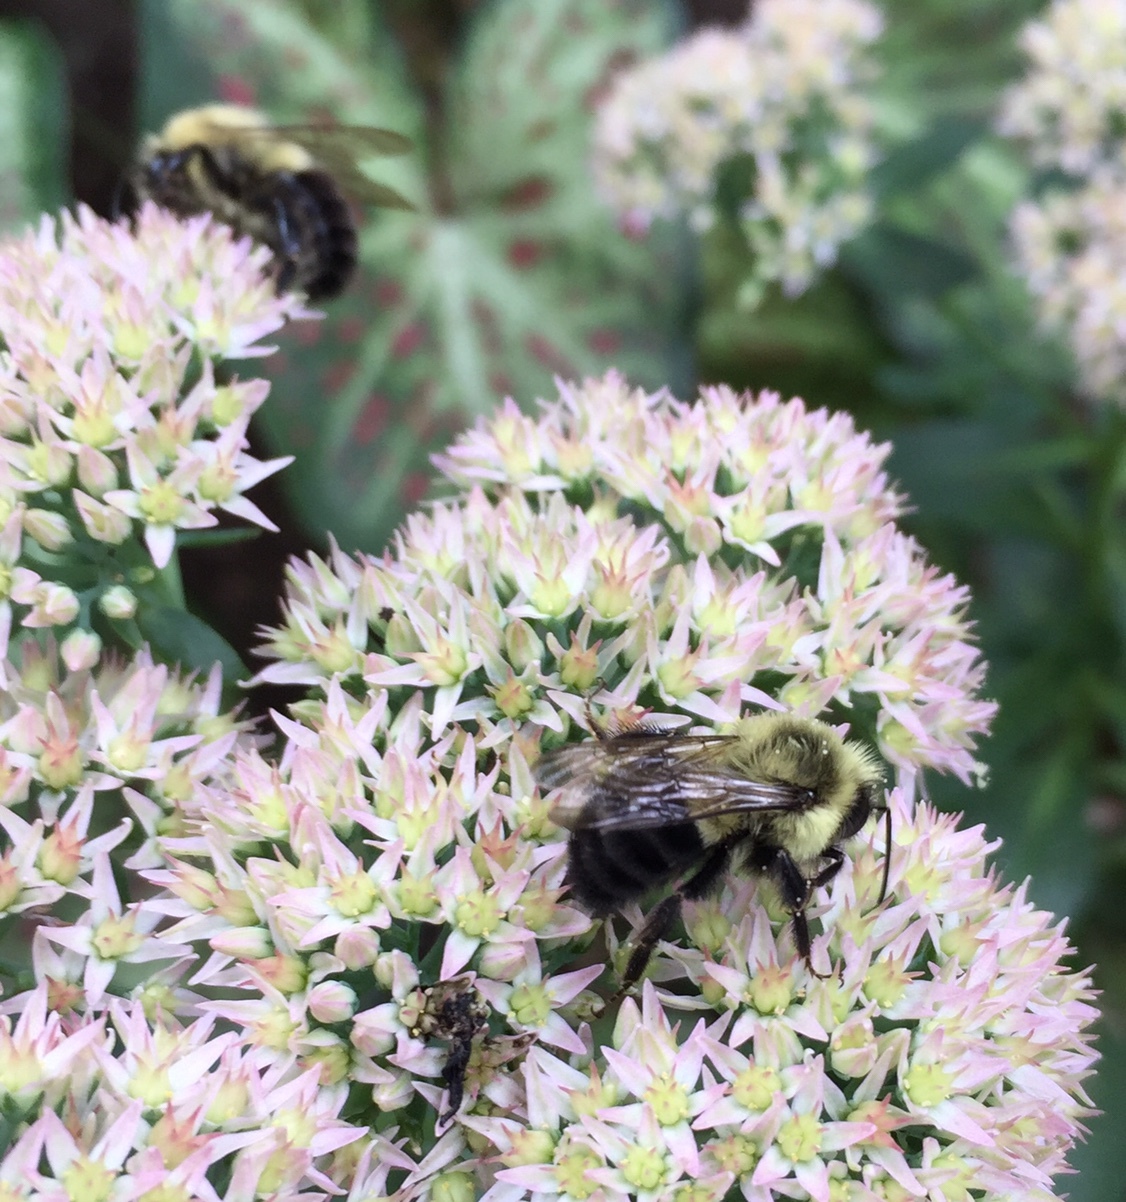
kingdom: Animalia
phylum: Arthropoda
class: Insecta
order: Hymenoptera
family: Apidae
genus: Bombus
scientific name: Bombus impatiens
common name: Common eastern bumble bee
